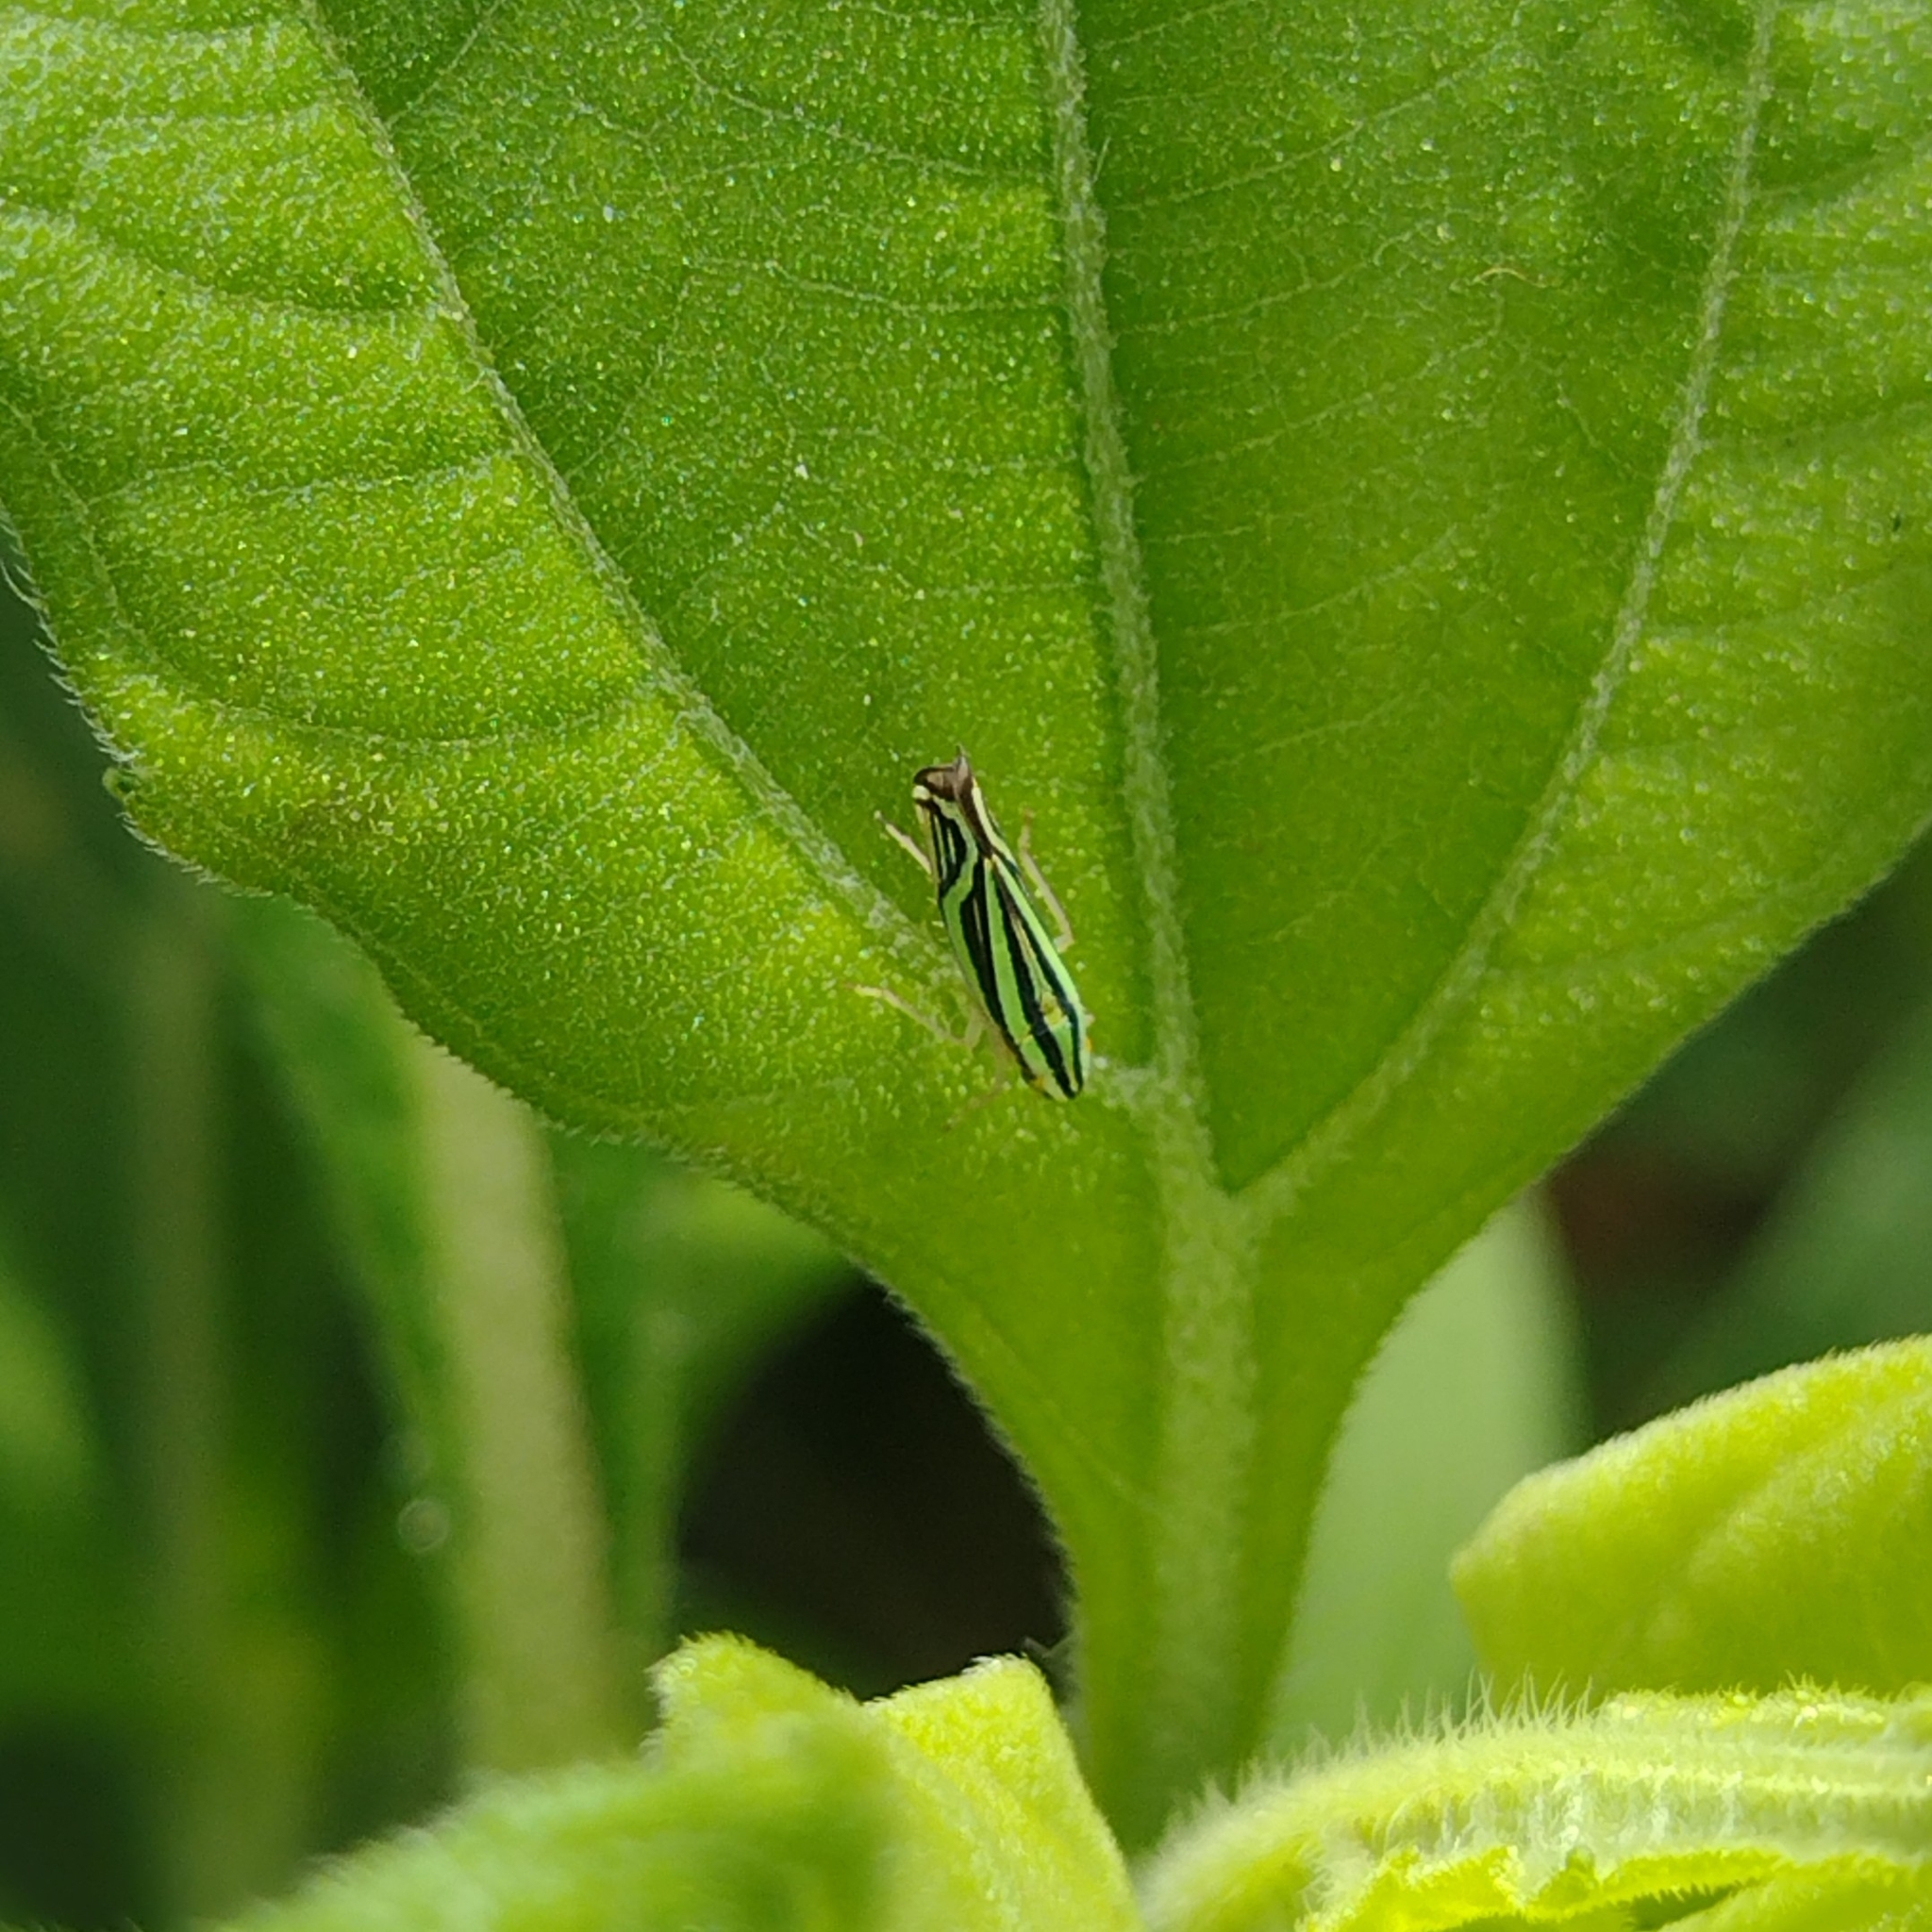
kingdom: Animalia
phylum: Arthropoda
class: Insecta
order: Hemiptera
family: Cicadellidae
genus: Sibovia
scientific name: Sibovia sagata
